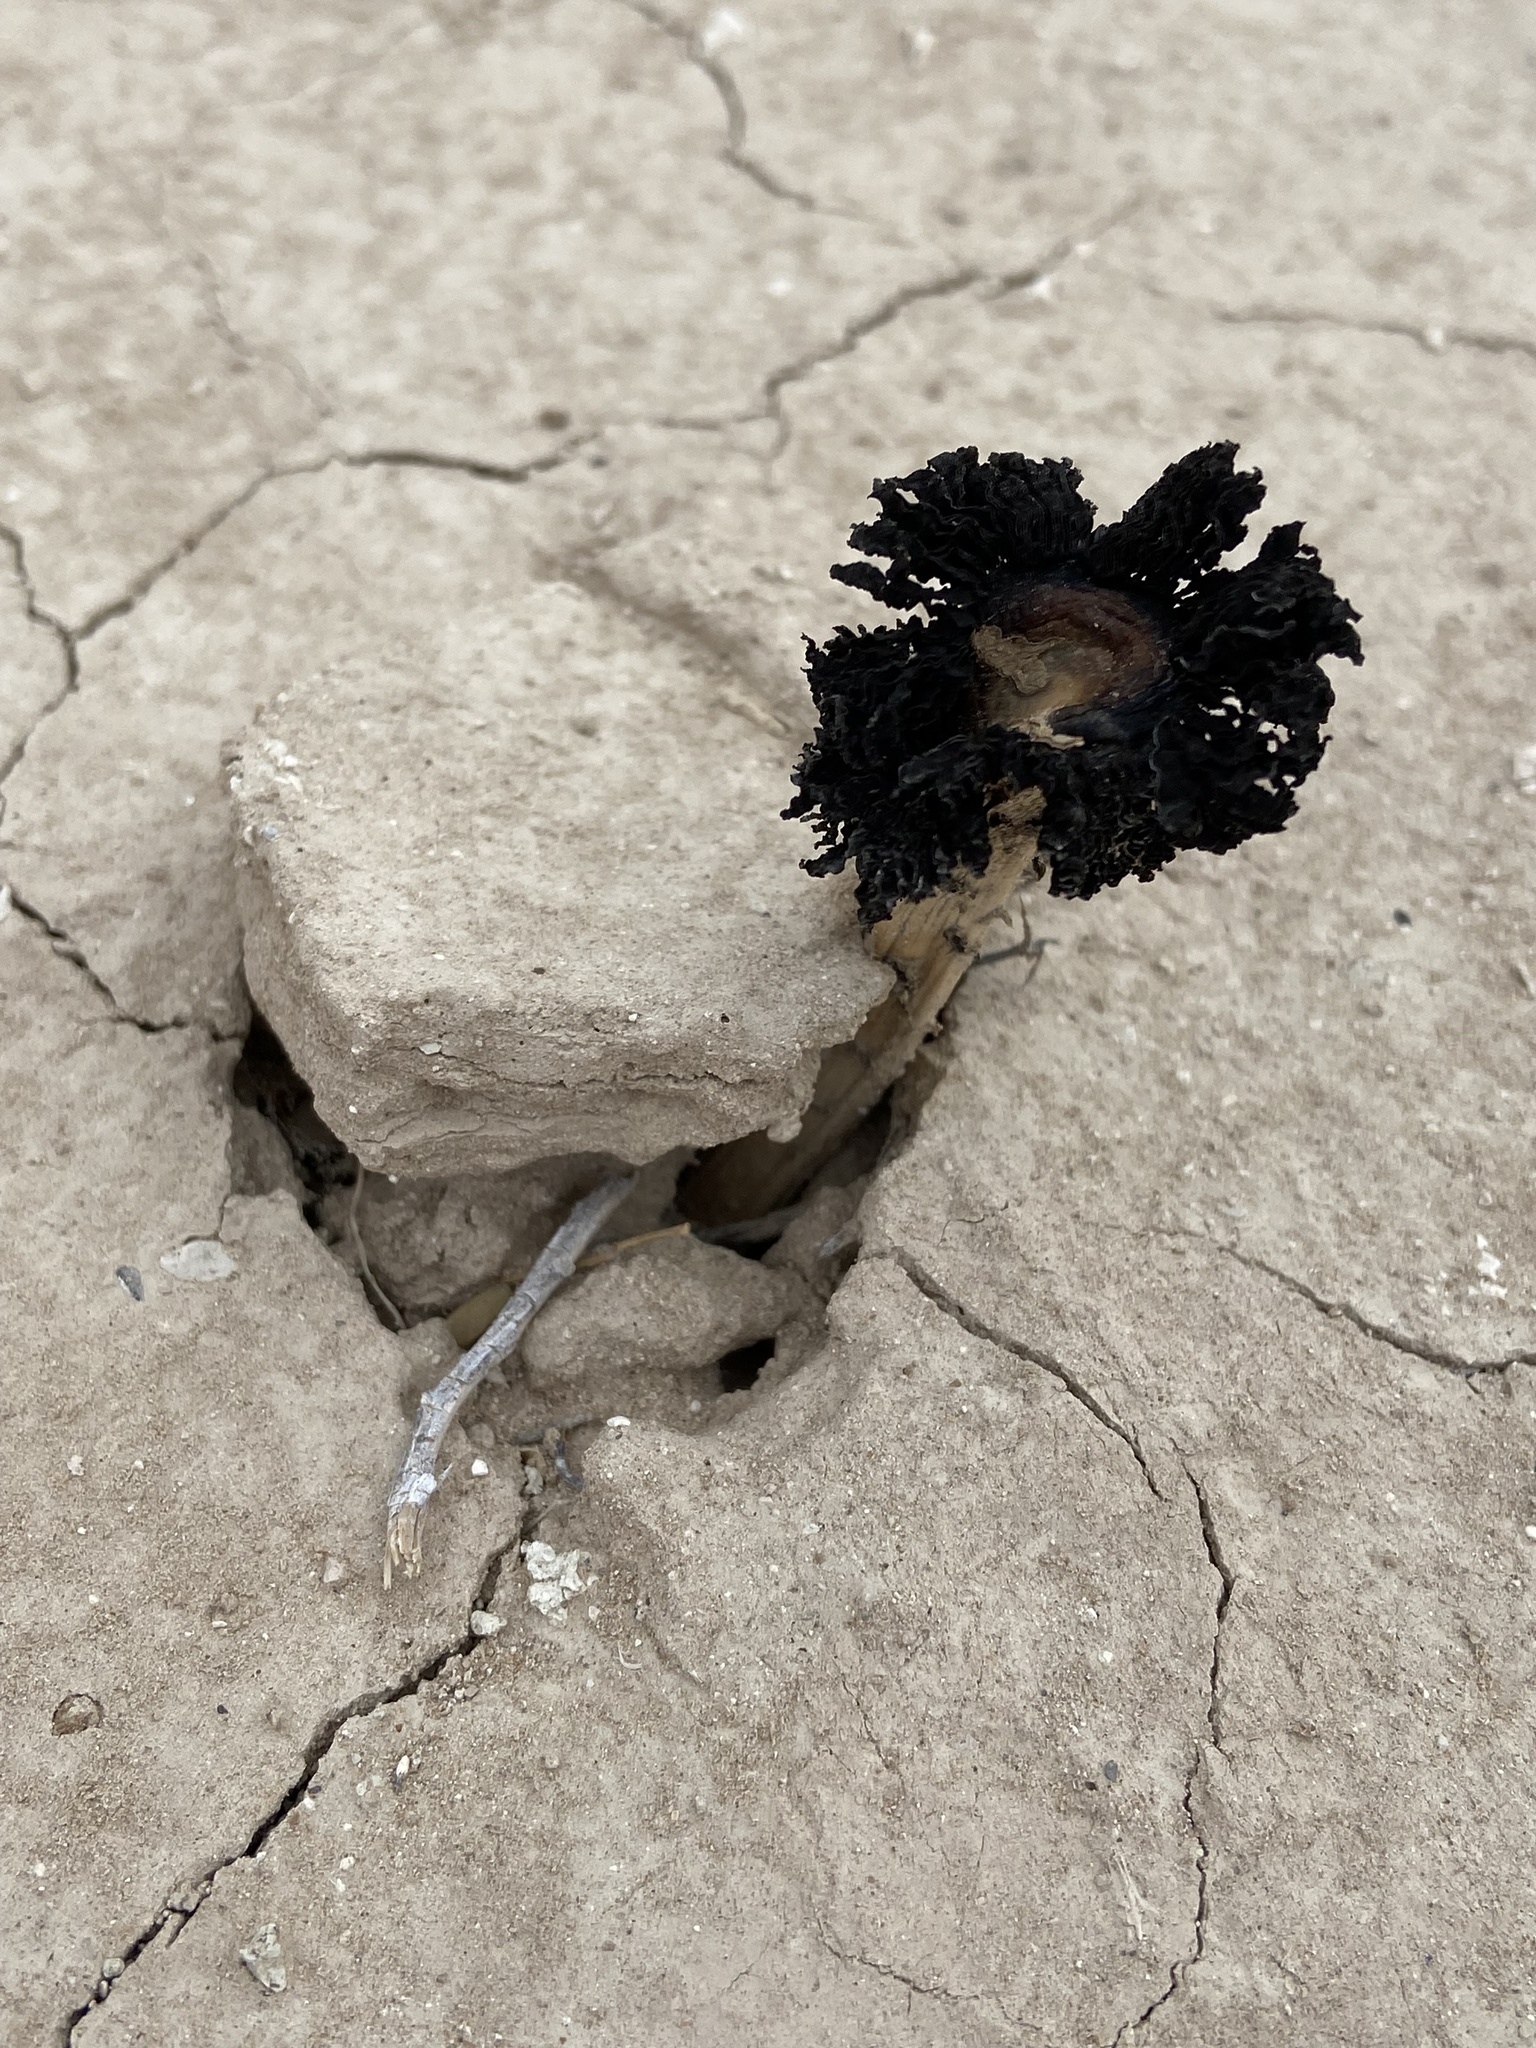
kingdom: Fungi
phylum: Basidiomycota
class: Agaricomycetes
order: Agaricales
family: Agaricaceae
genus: Montagnea
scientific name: Montagnea arenaria
